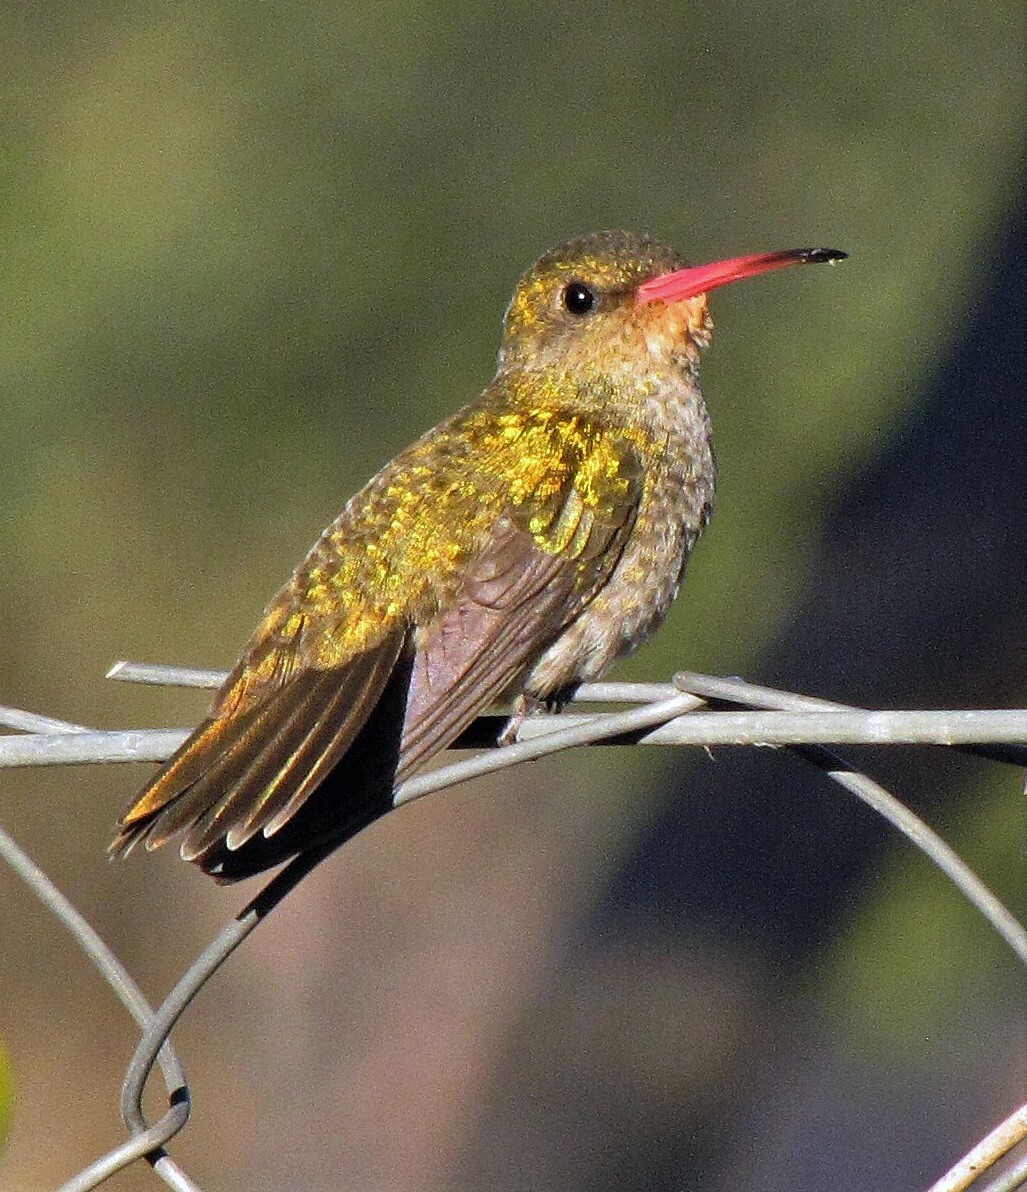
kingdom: Animalia
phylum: Chordata
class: Aves
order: Apodiformes
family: Trochilidae
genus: Hylocharis
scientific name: Hylocharis chrysura
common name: Gilded sapphire
